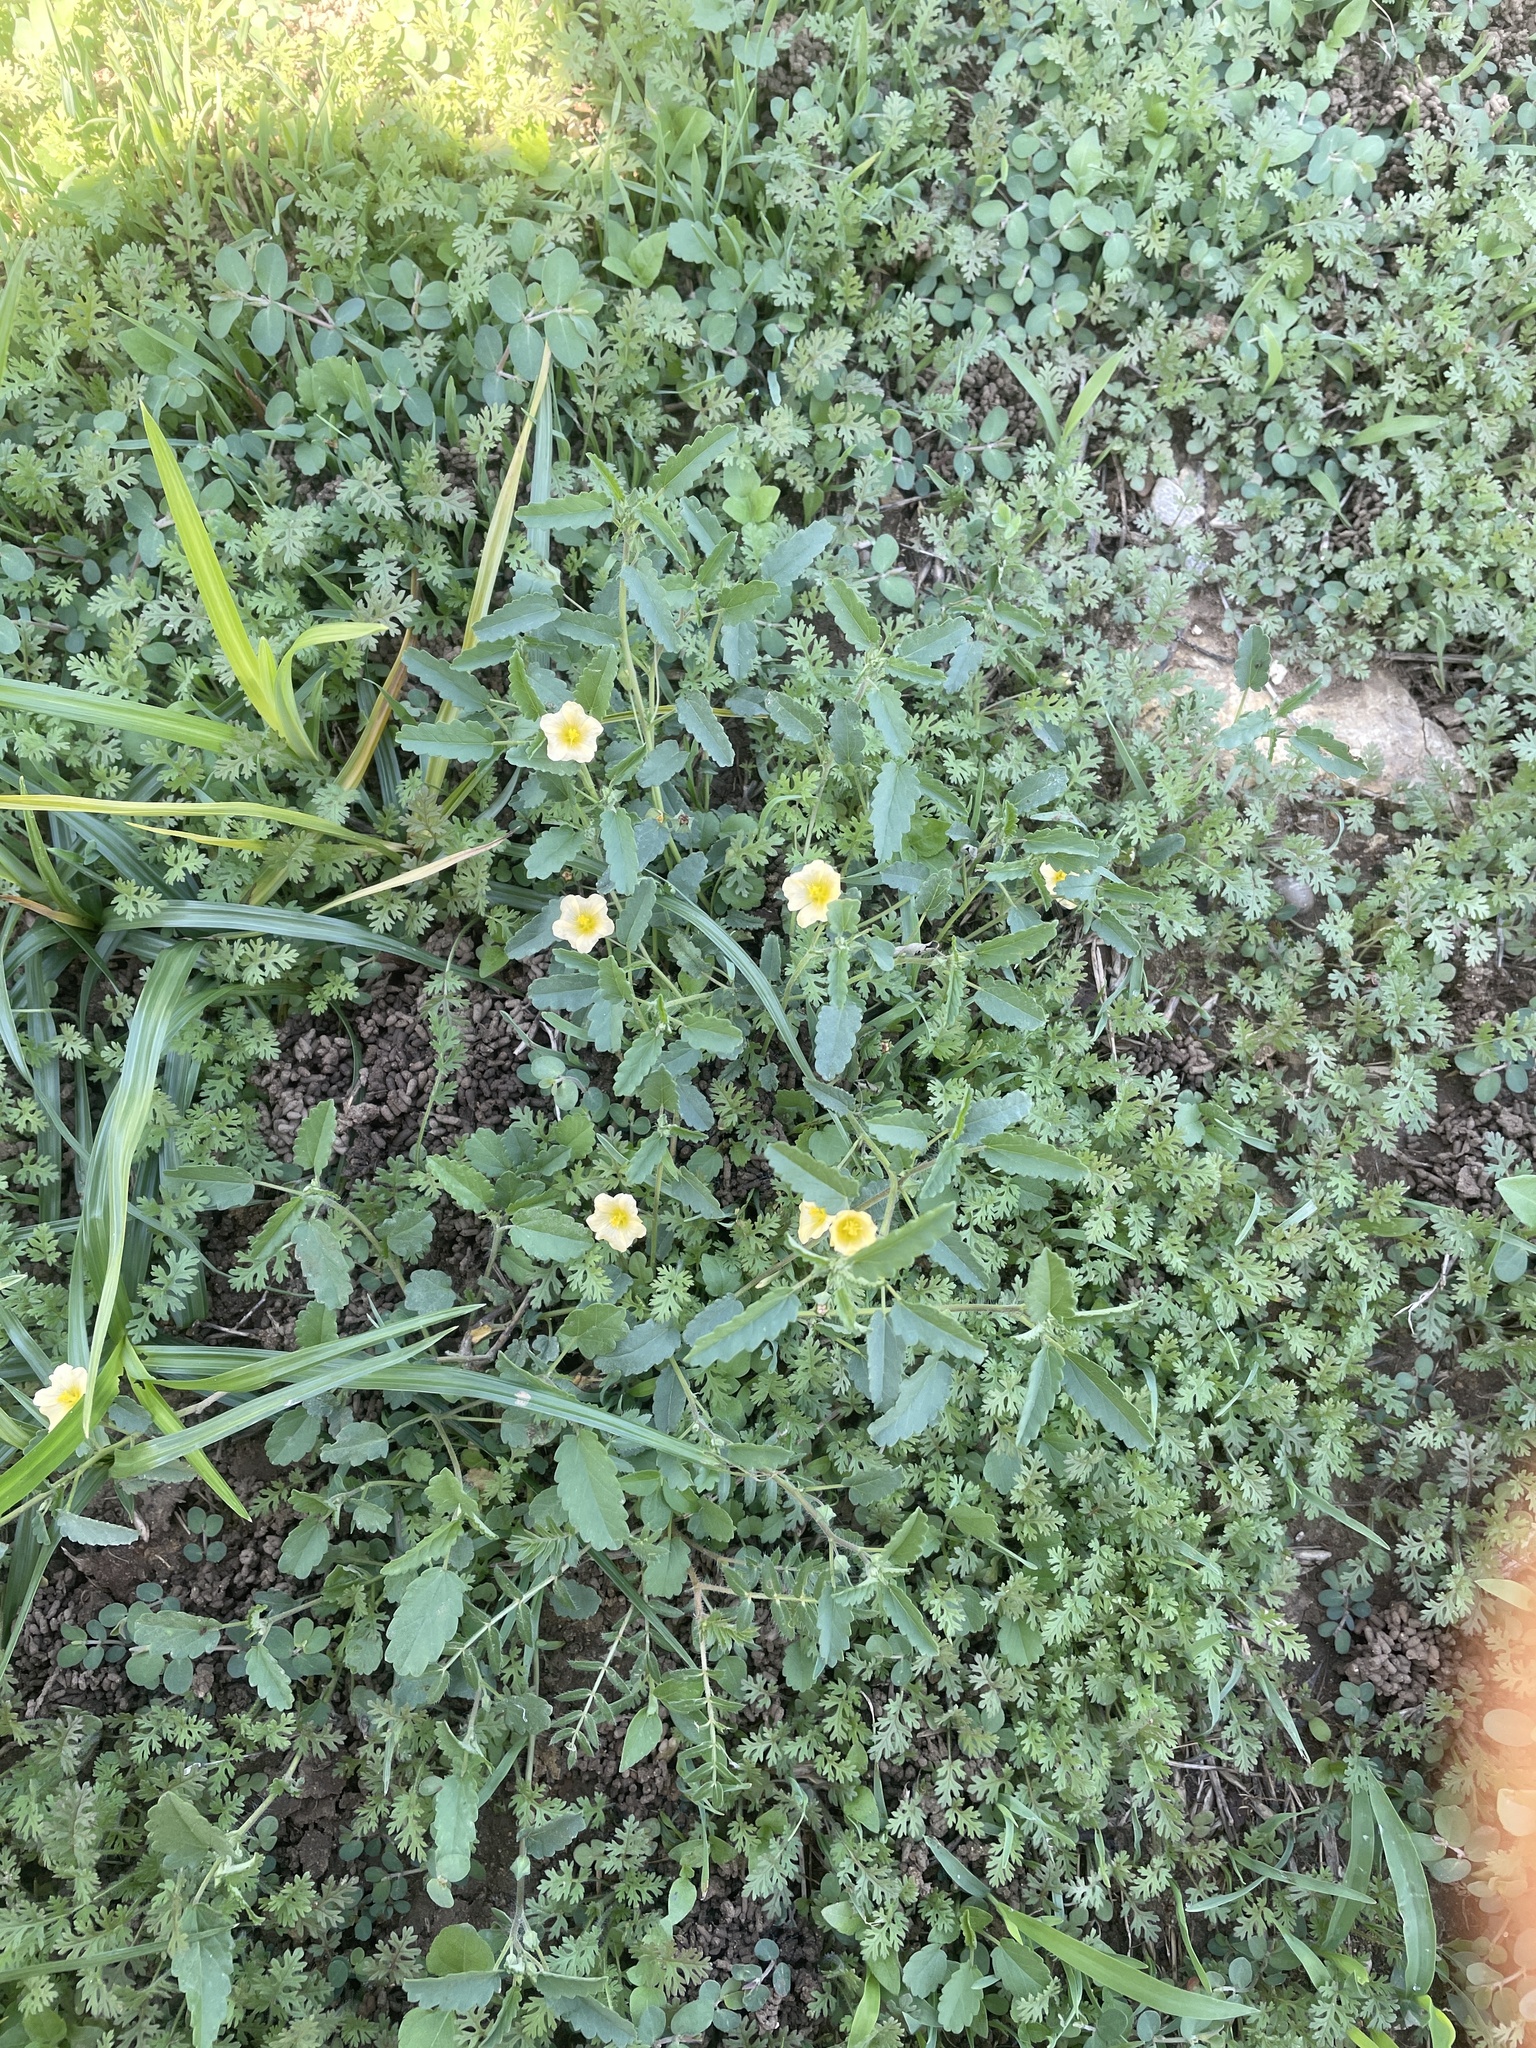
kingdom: Plantae
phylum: Tracheophyta
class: Magnoliopsida
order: Malvales
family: Malvaceae
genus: Sida
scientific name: Sida abutilifolia
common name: Spreading fanpetals
